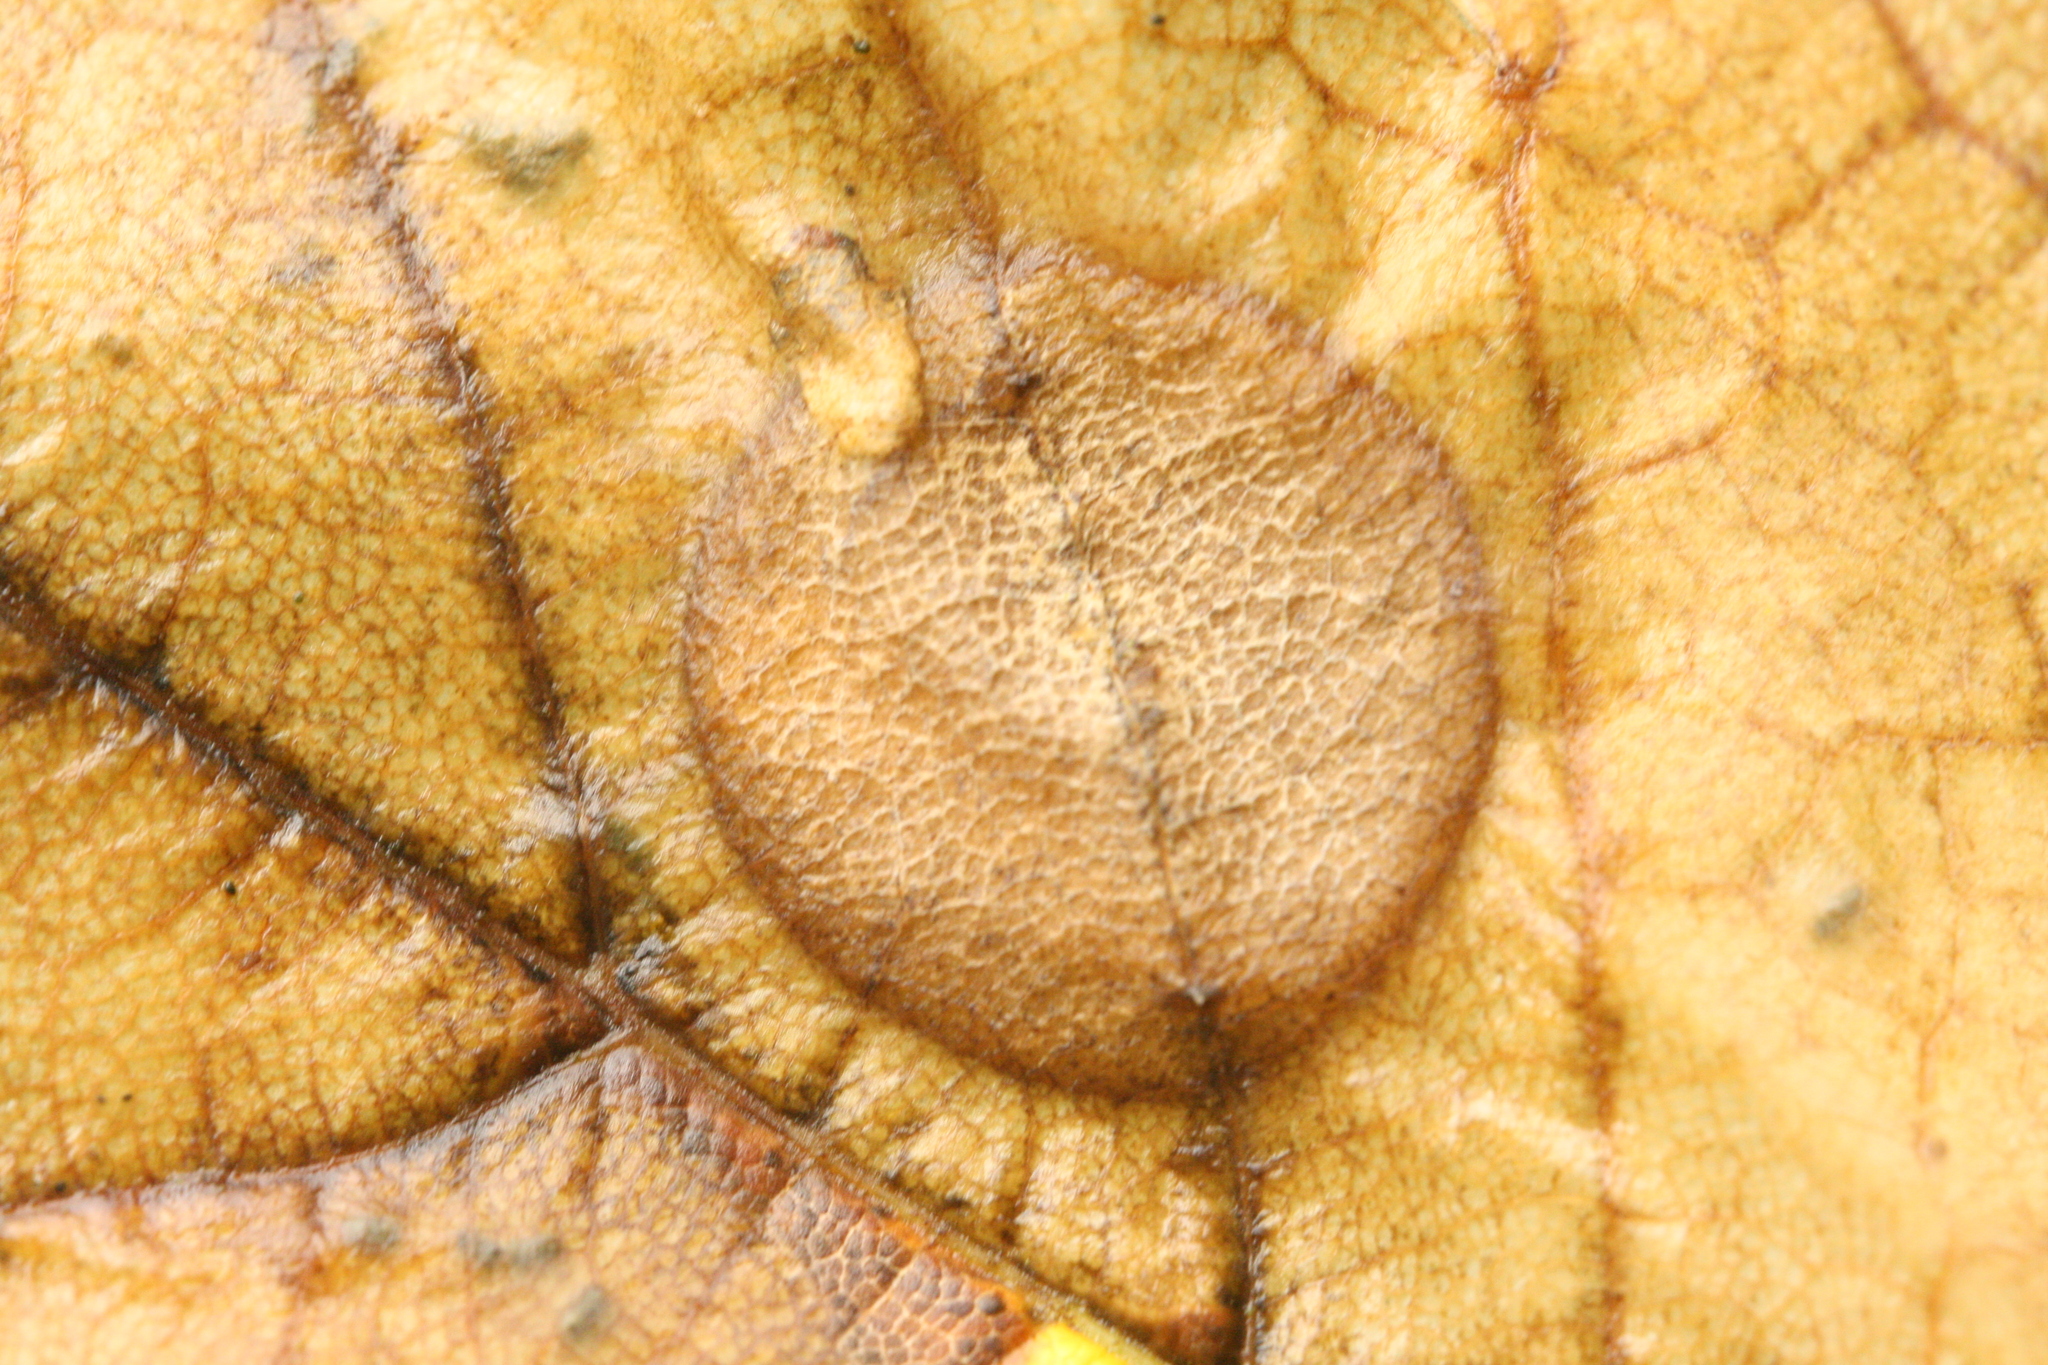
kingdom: Animalia
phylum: Arthropoda
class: Insecta
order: Hymenoptera
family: Tenthredinidae
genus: Heterarthrus
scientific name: Heterarthrus leucomela
